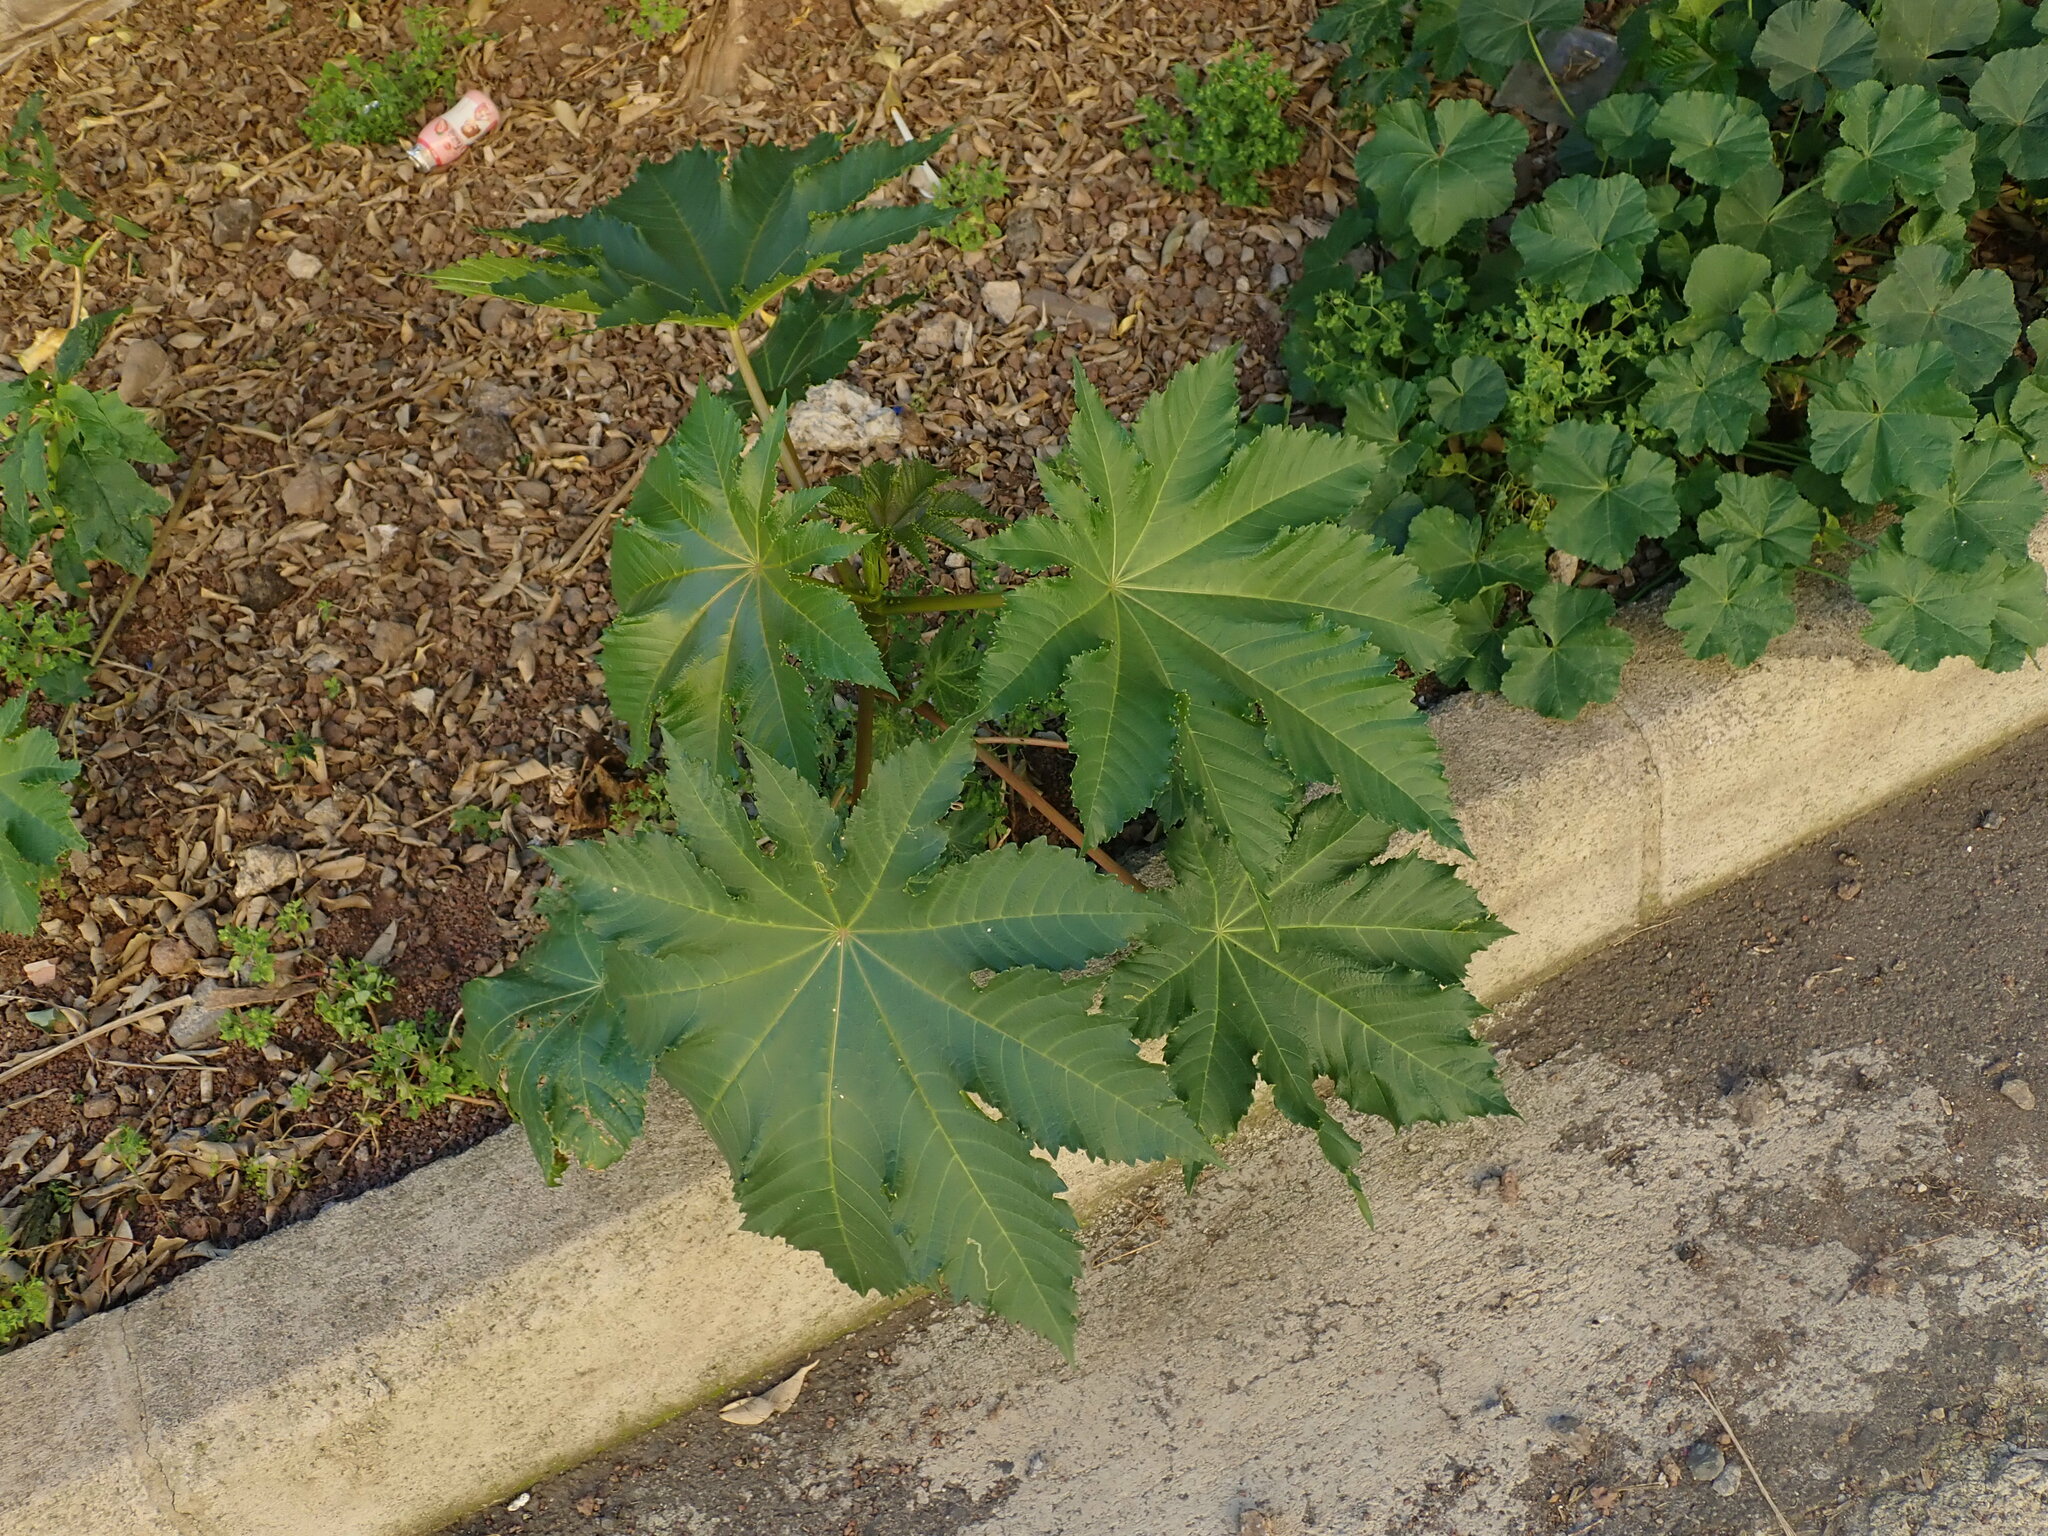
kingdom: Plantae
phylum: Tracheophyta
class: Magnoliopsida
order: Malpighiales
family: Euphorbiaceae
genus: Ricinus
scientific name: Ricinus communis
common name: Castor-oil-plant
